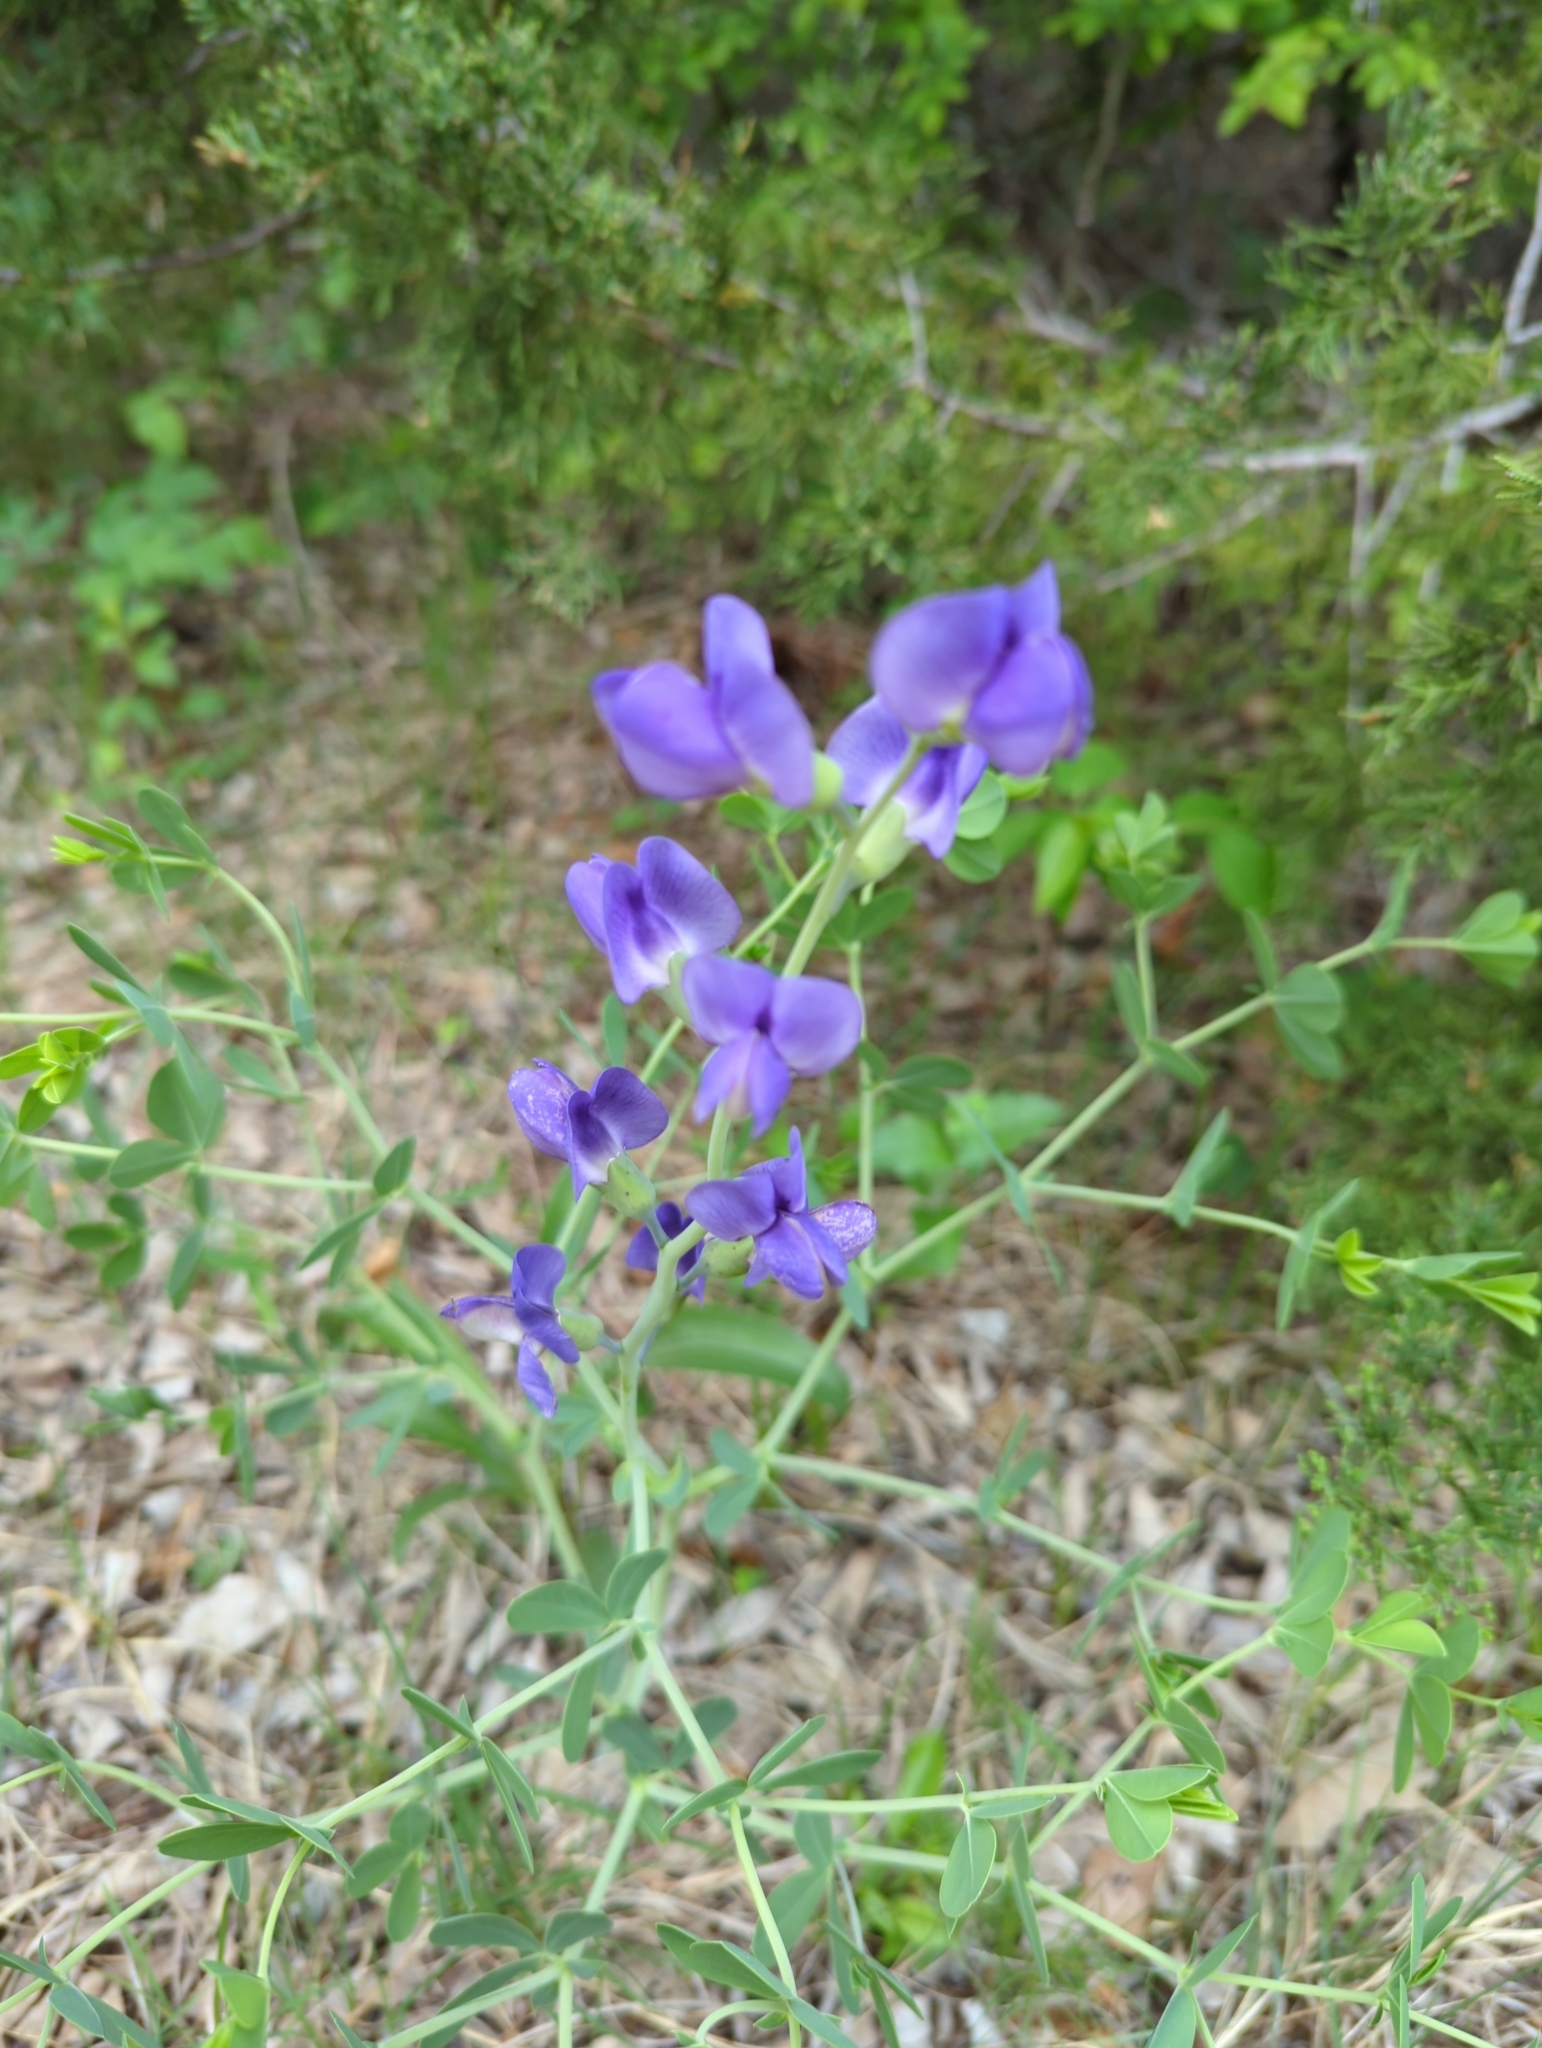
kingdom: Plantae
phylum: Tracheophyta
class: Magnoliopsida
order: Fabales
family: Fabaceae
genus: Baptisia
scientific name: Baptisia australis
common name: Blue false indigo
